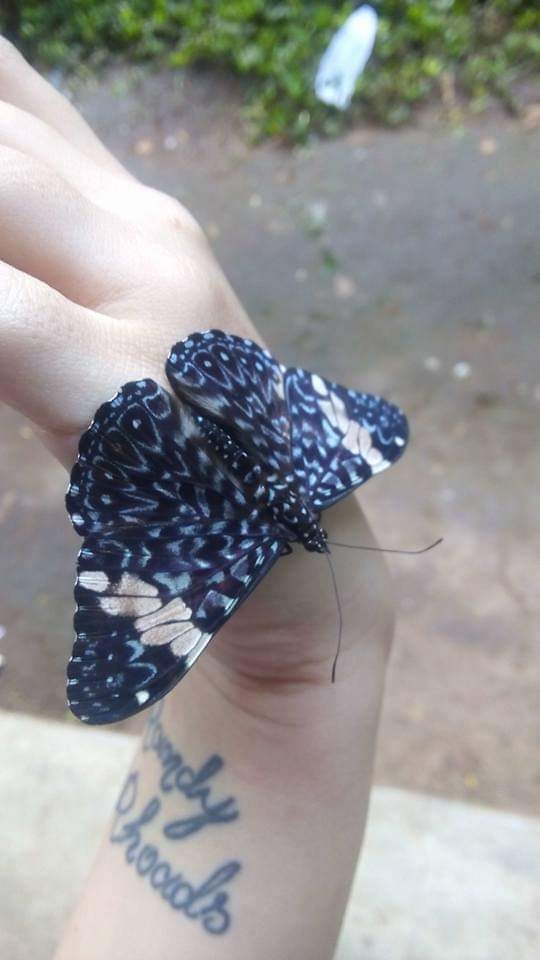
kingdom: Animalia
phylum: Arthropoda
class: Insecta
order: Lepidoptera
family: Nymphalidae
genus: Hamadryas
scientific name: Hamadryas amphinome
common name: Red cracker
